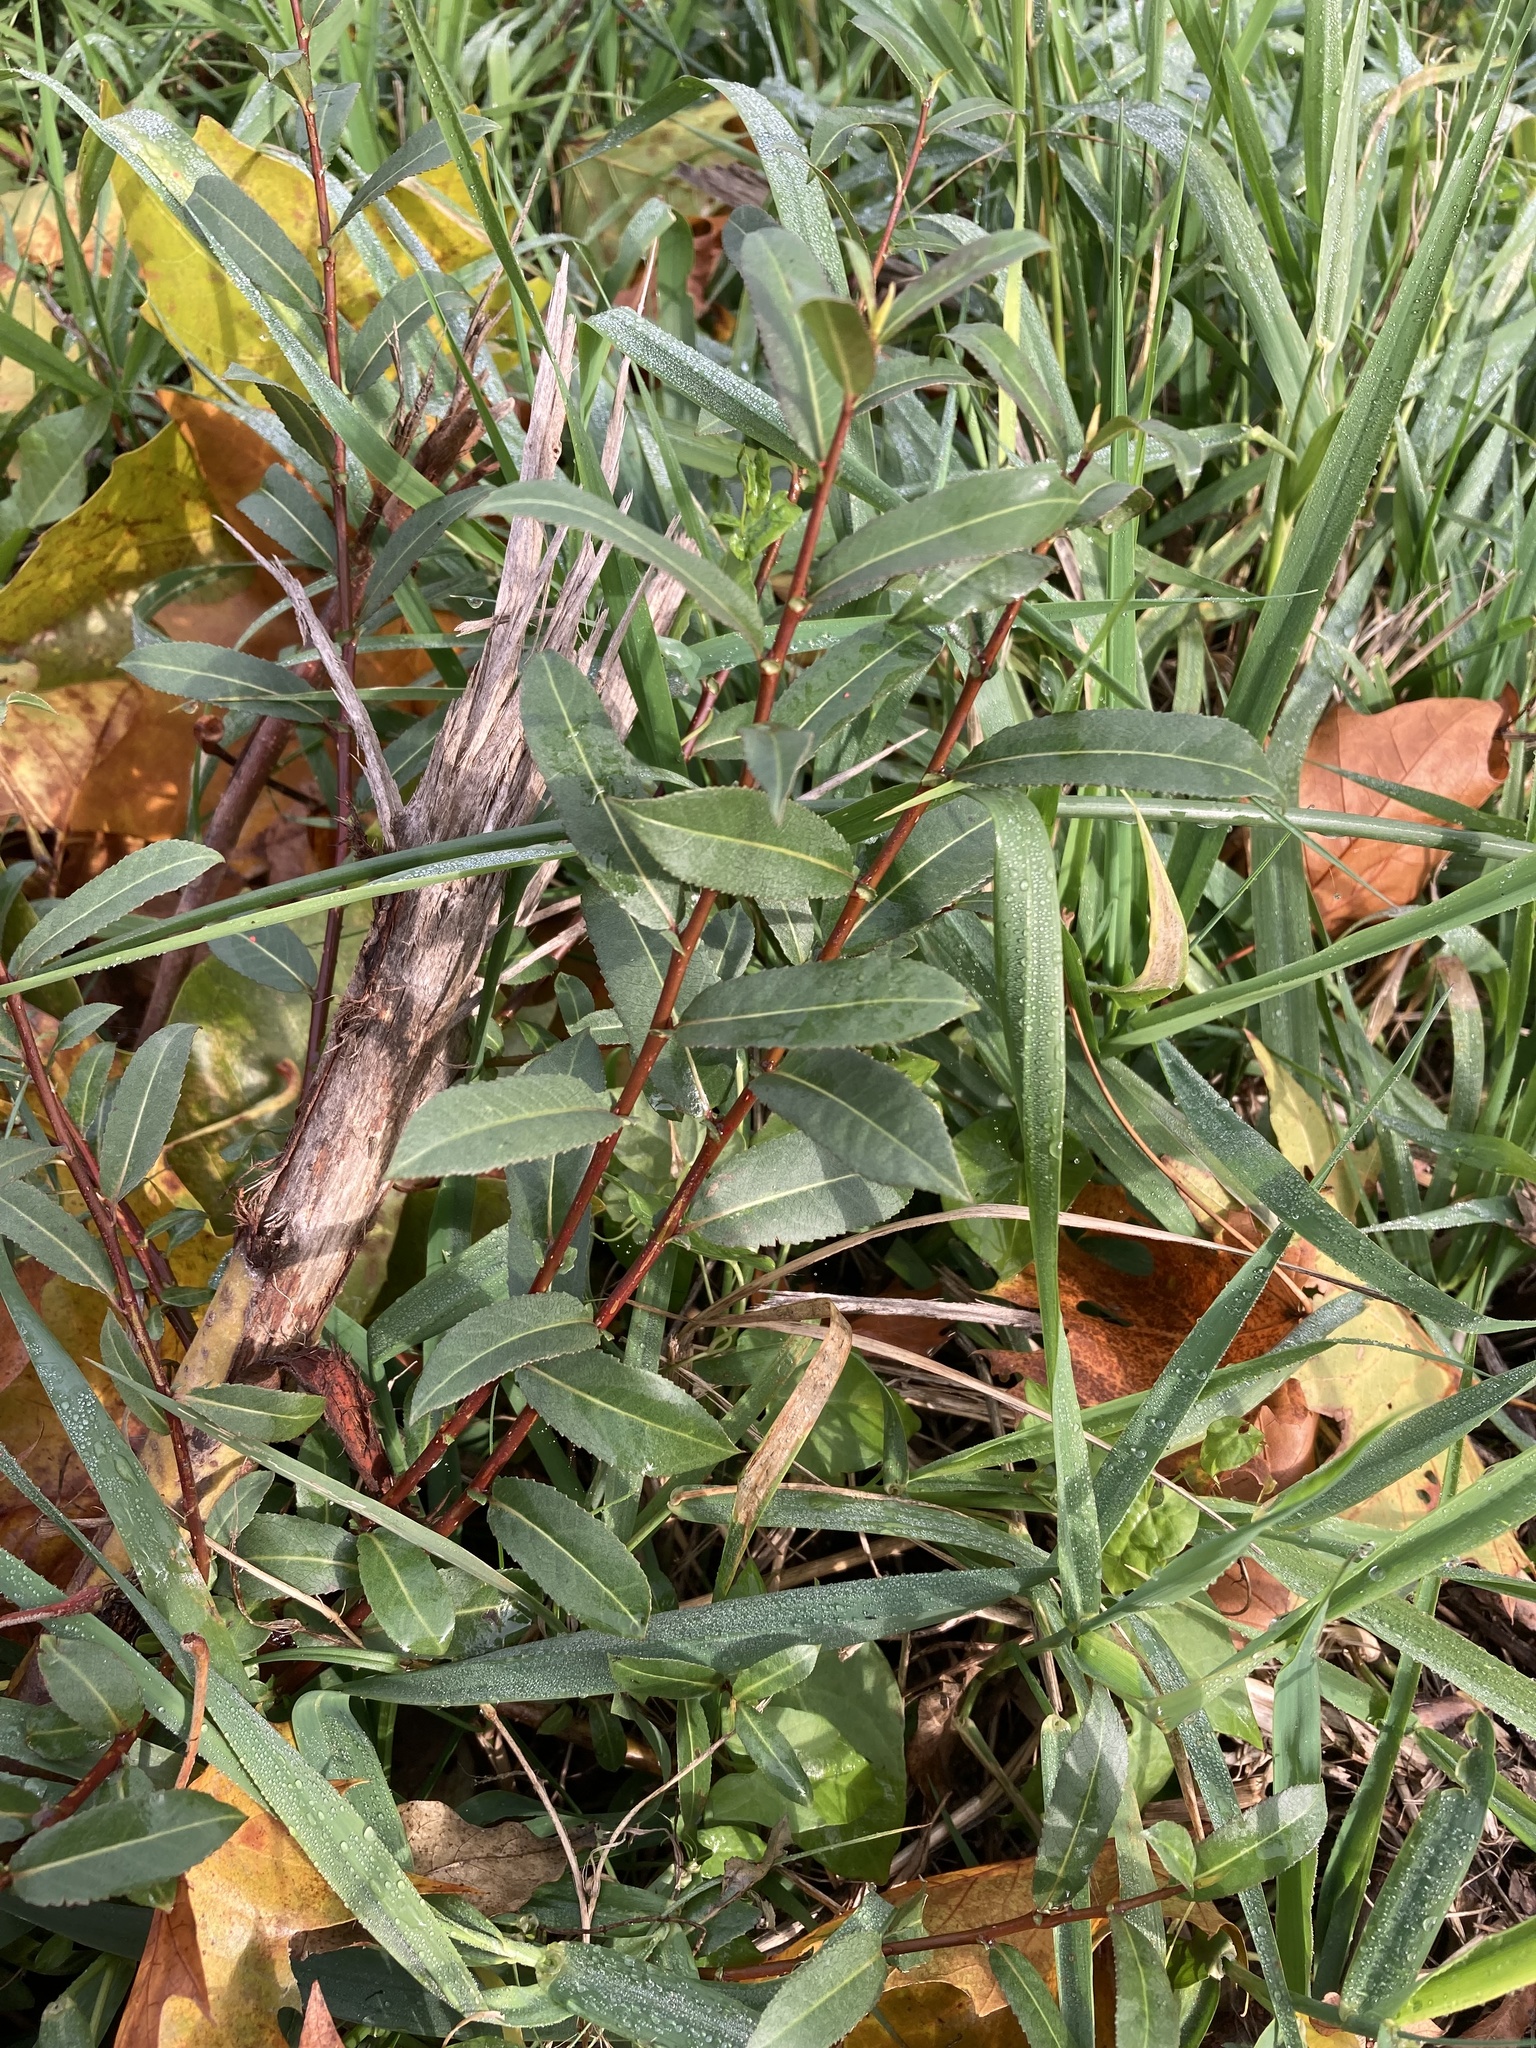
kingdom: Plantae
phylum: Tracheophyta
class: Magnoliopsida
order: Malpighiales
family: Salicaceae
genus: Salix
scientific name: Salix triandra
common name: Almond willow
